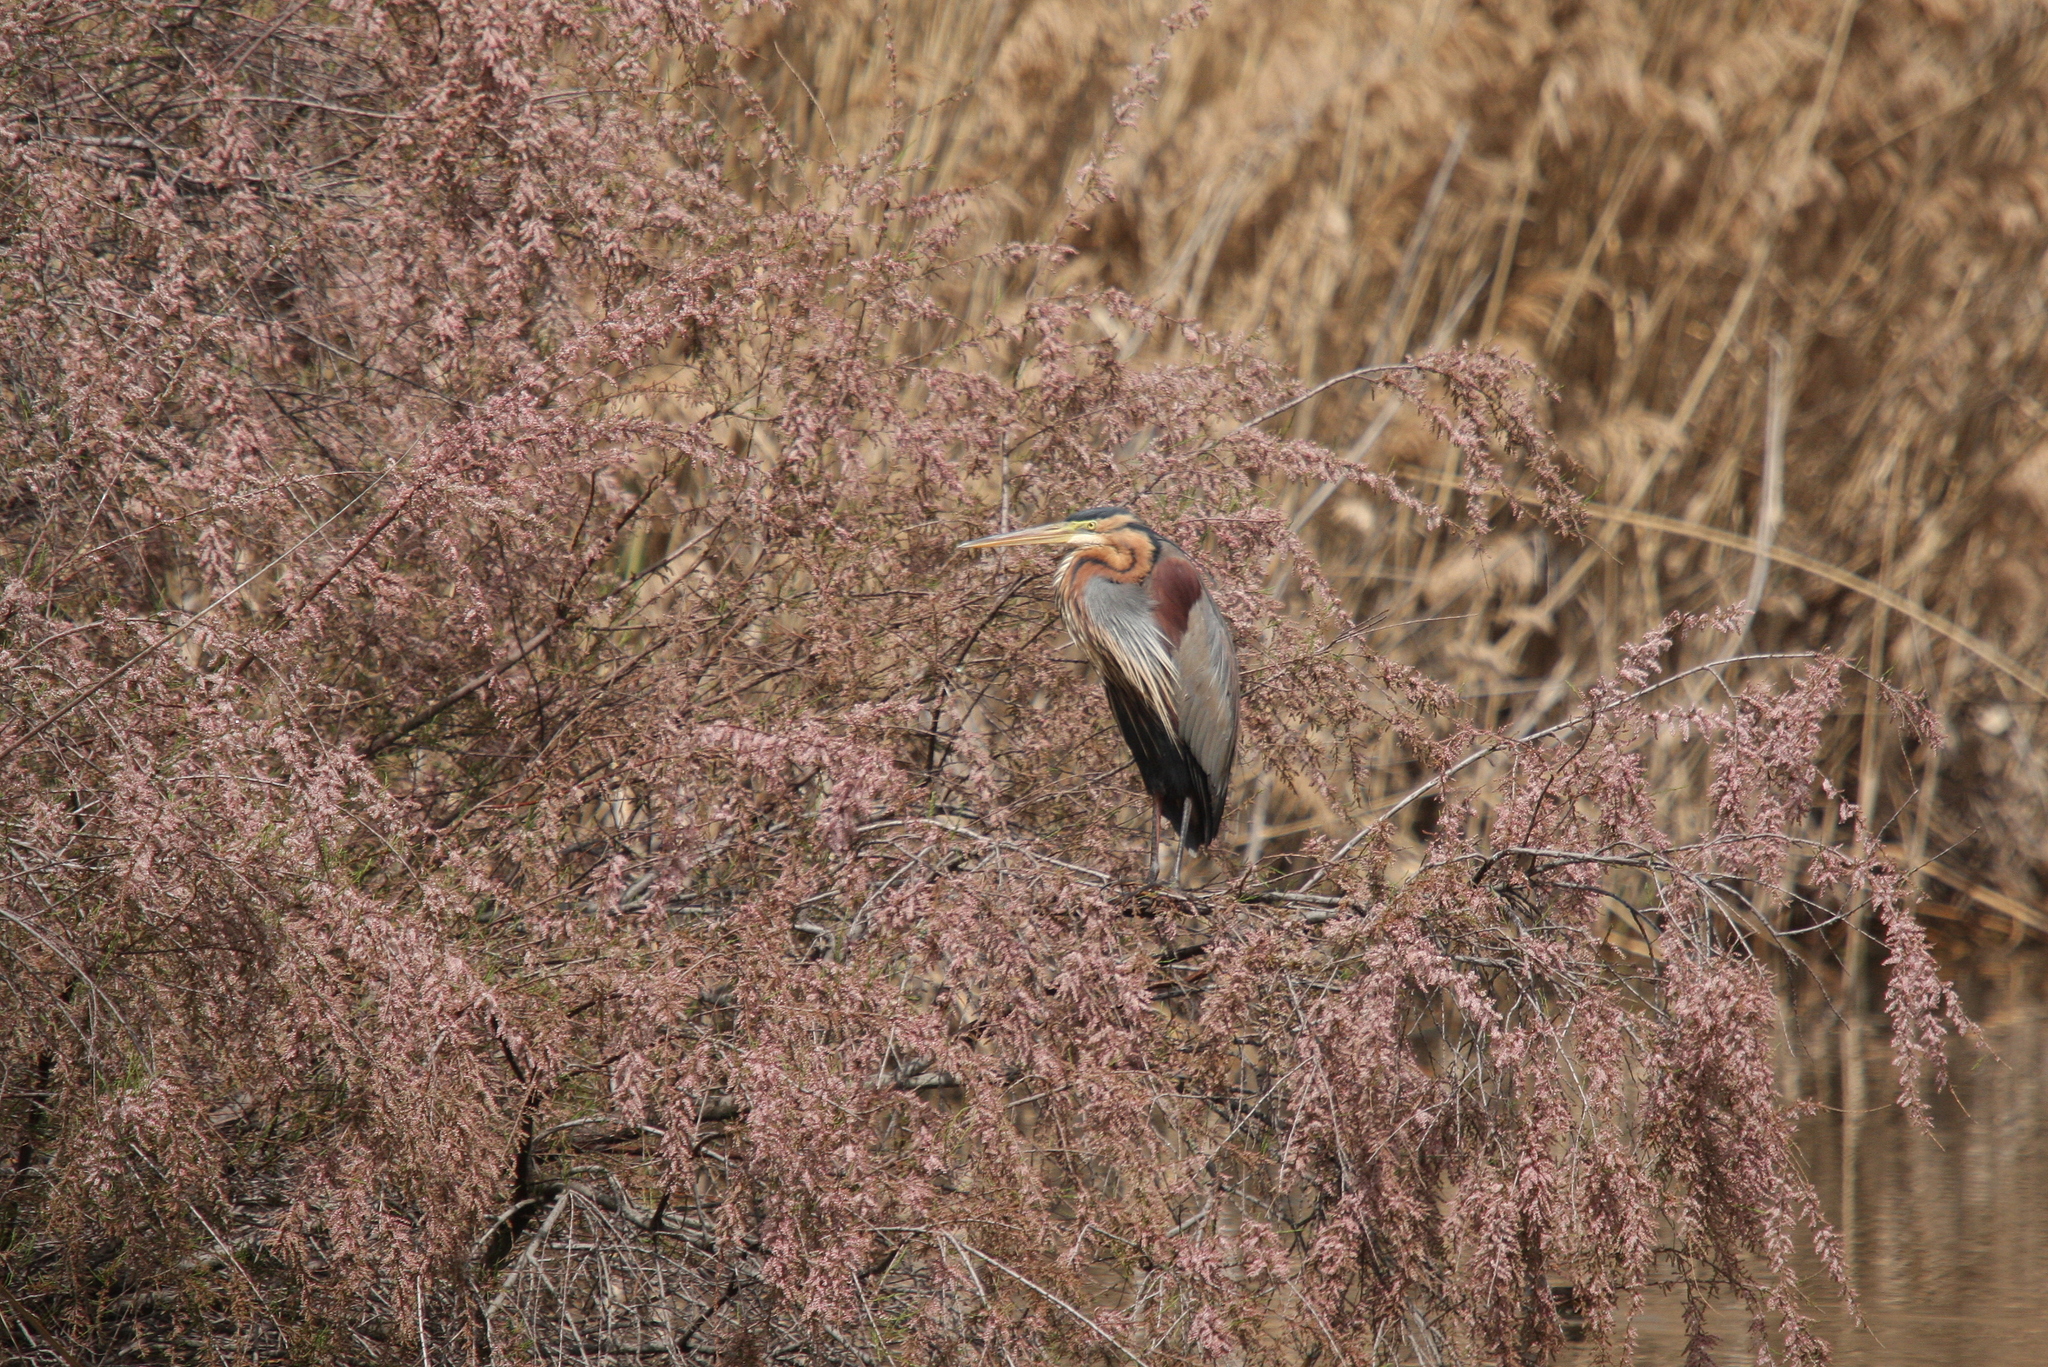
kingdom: Animalia
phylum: Chordata
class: Aves
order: Pelecaniformes
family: Ardeidae
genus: Ardea
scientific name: Ardea purpurea
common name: Purple heron
